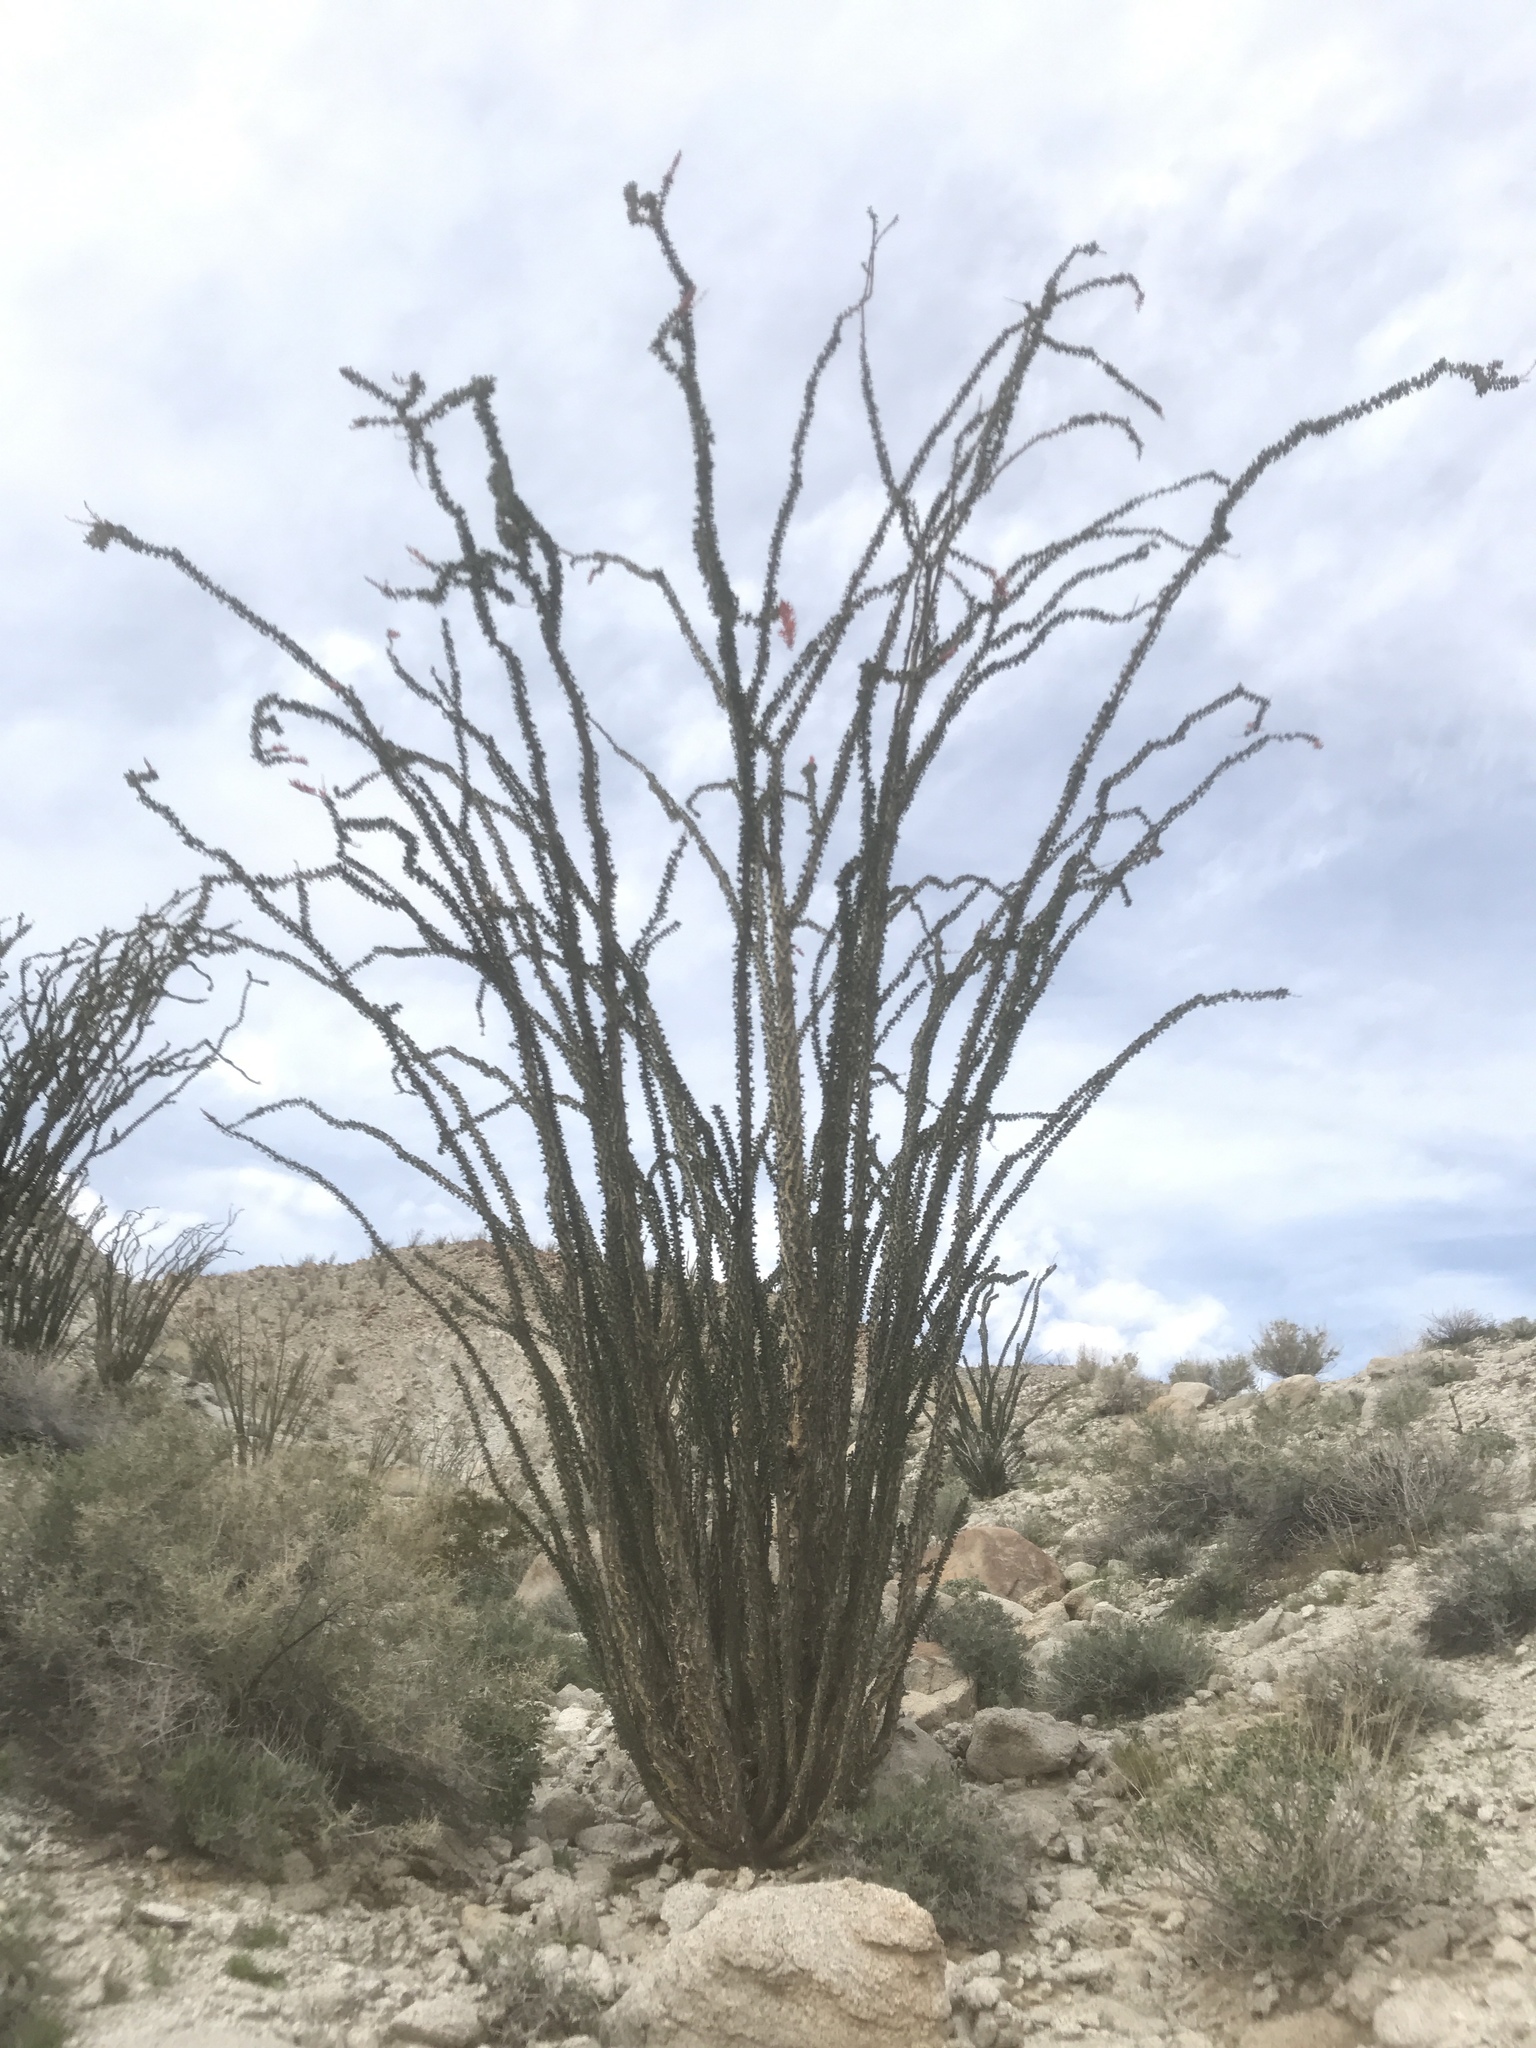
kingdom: Plantae
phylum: Tracheophyta
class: Magnoliopsida
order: Ericales
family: Fouquieriaceae
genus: Fouquieria
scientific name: Fouquieria splendens
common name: Vine-cactus
